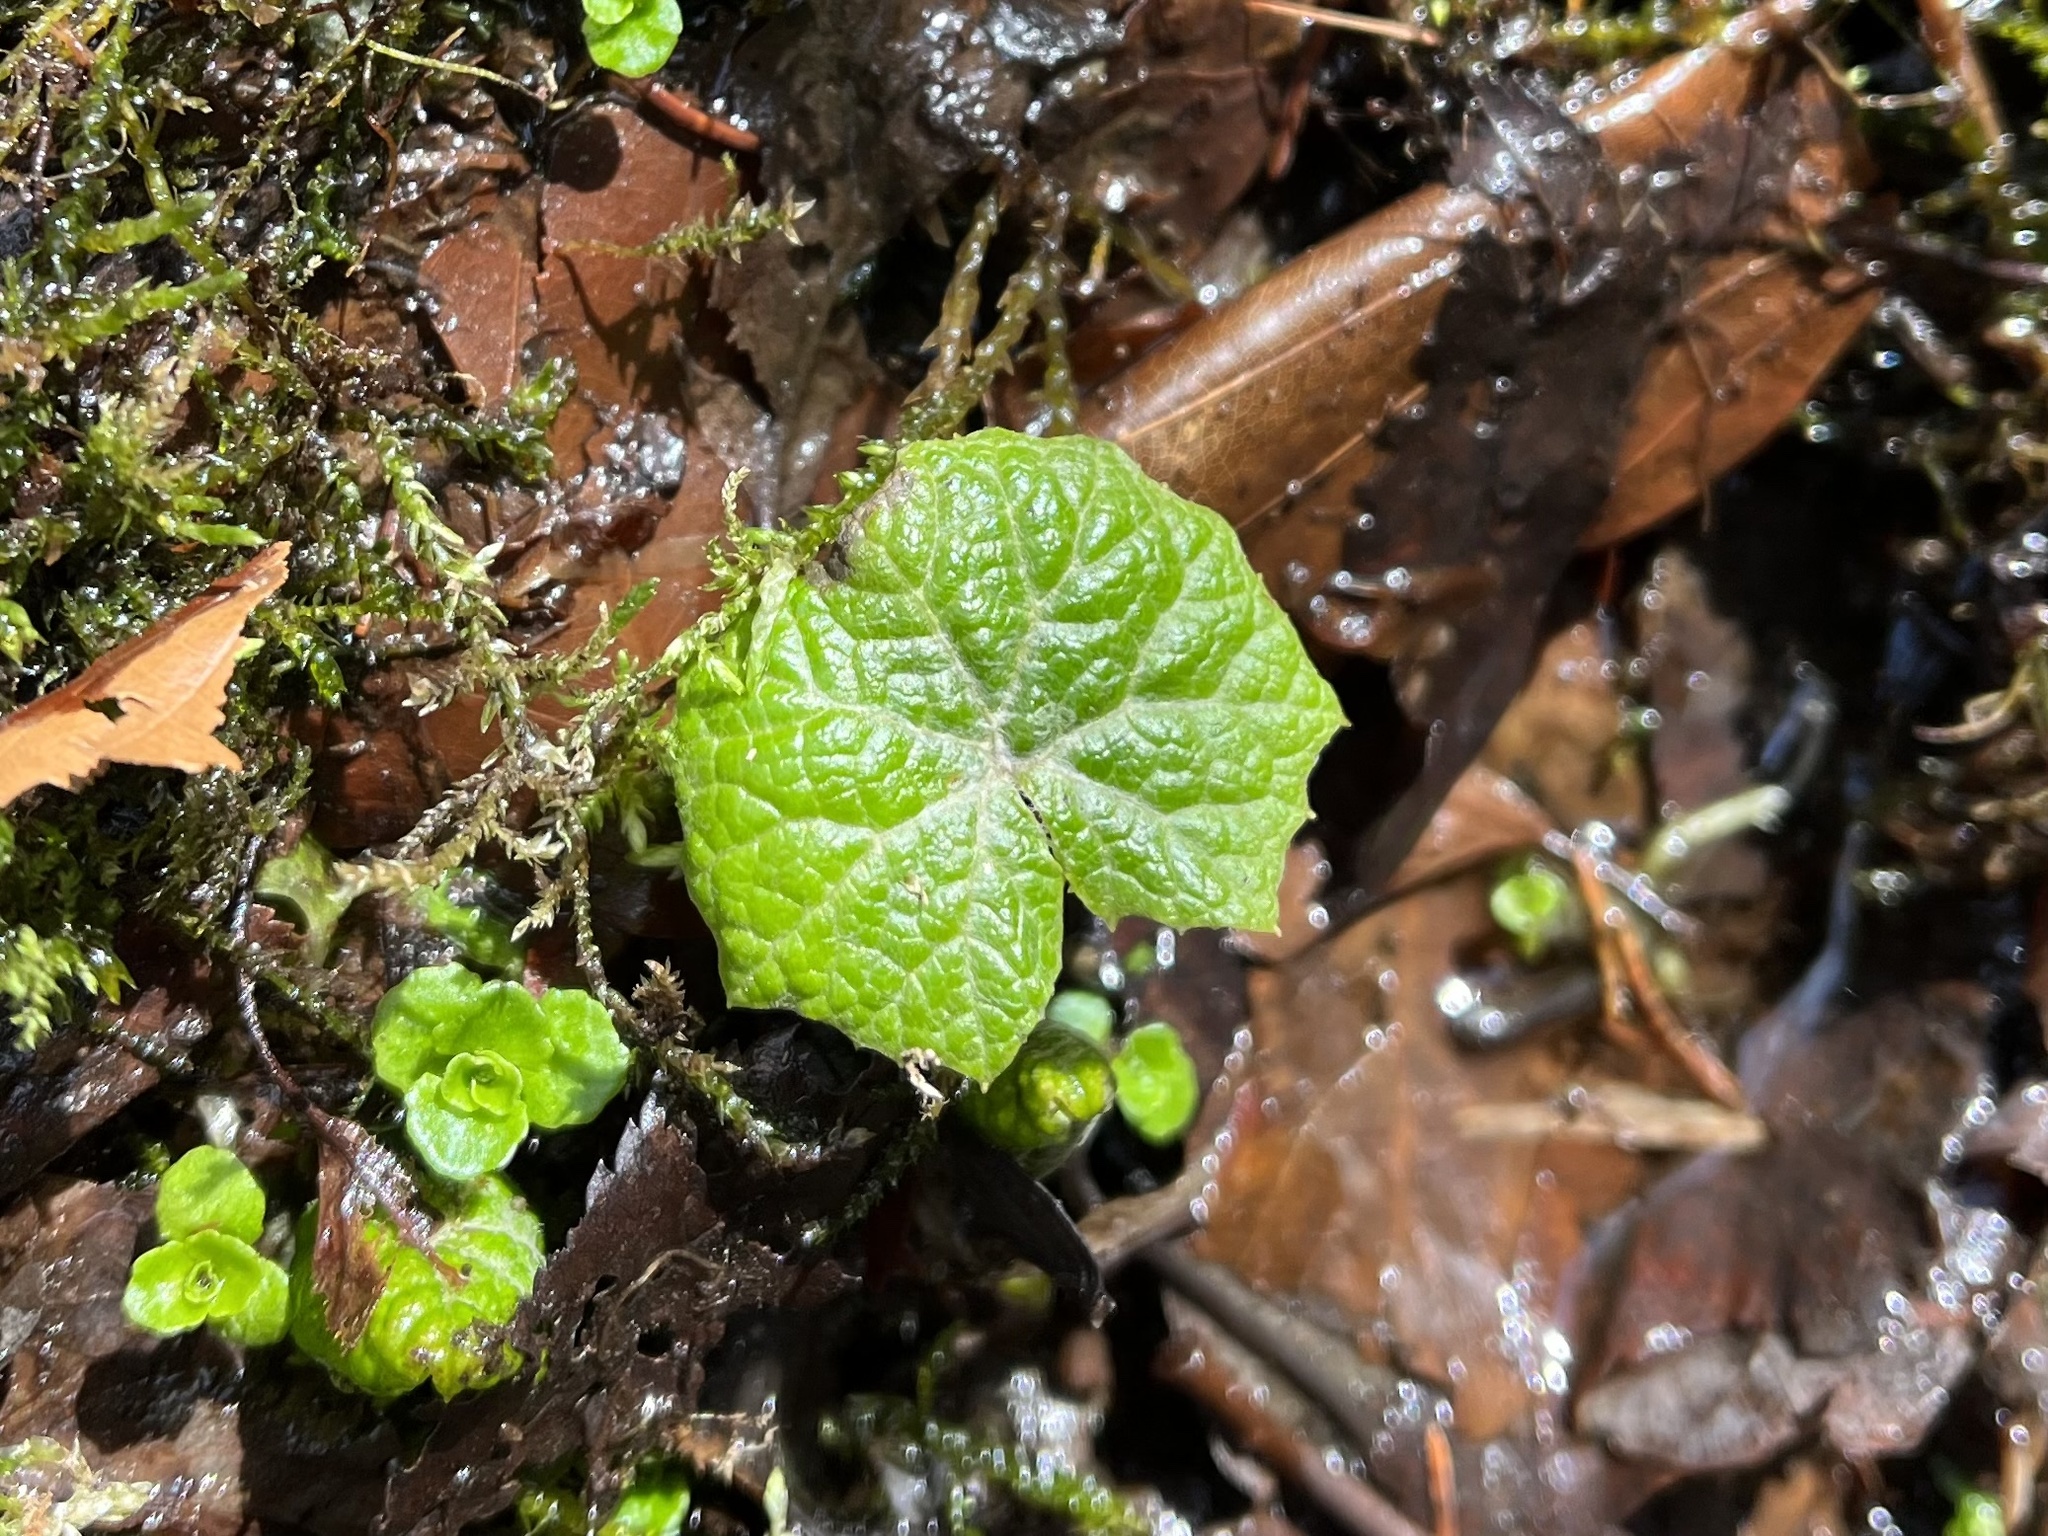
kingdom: Plantae
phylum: Tracheophyta
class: Magnoliopsida
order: Asterales
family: Asteraceae
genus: Petasites
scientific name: Petasites albus
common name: White butterbur
